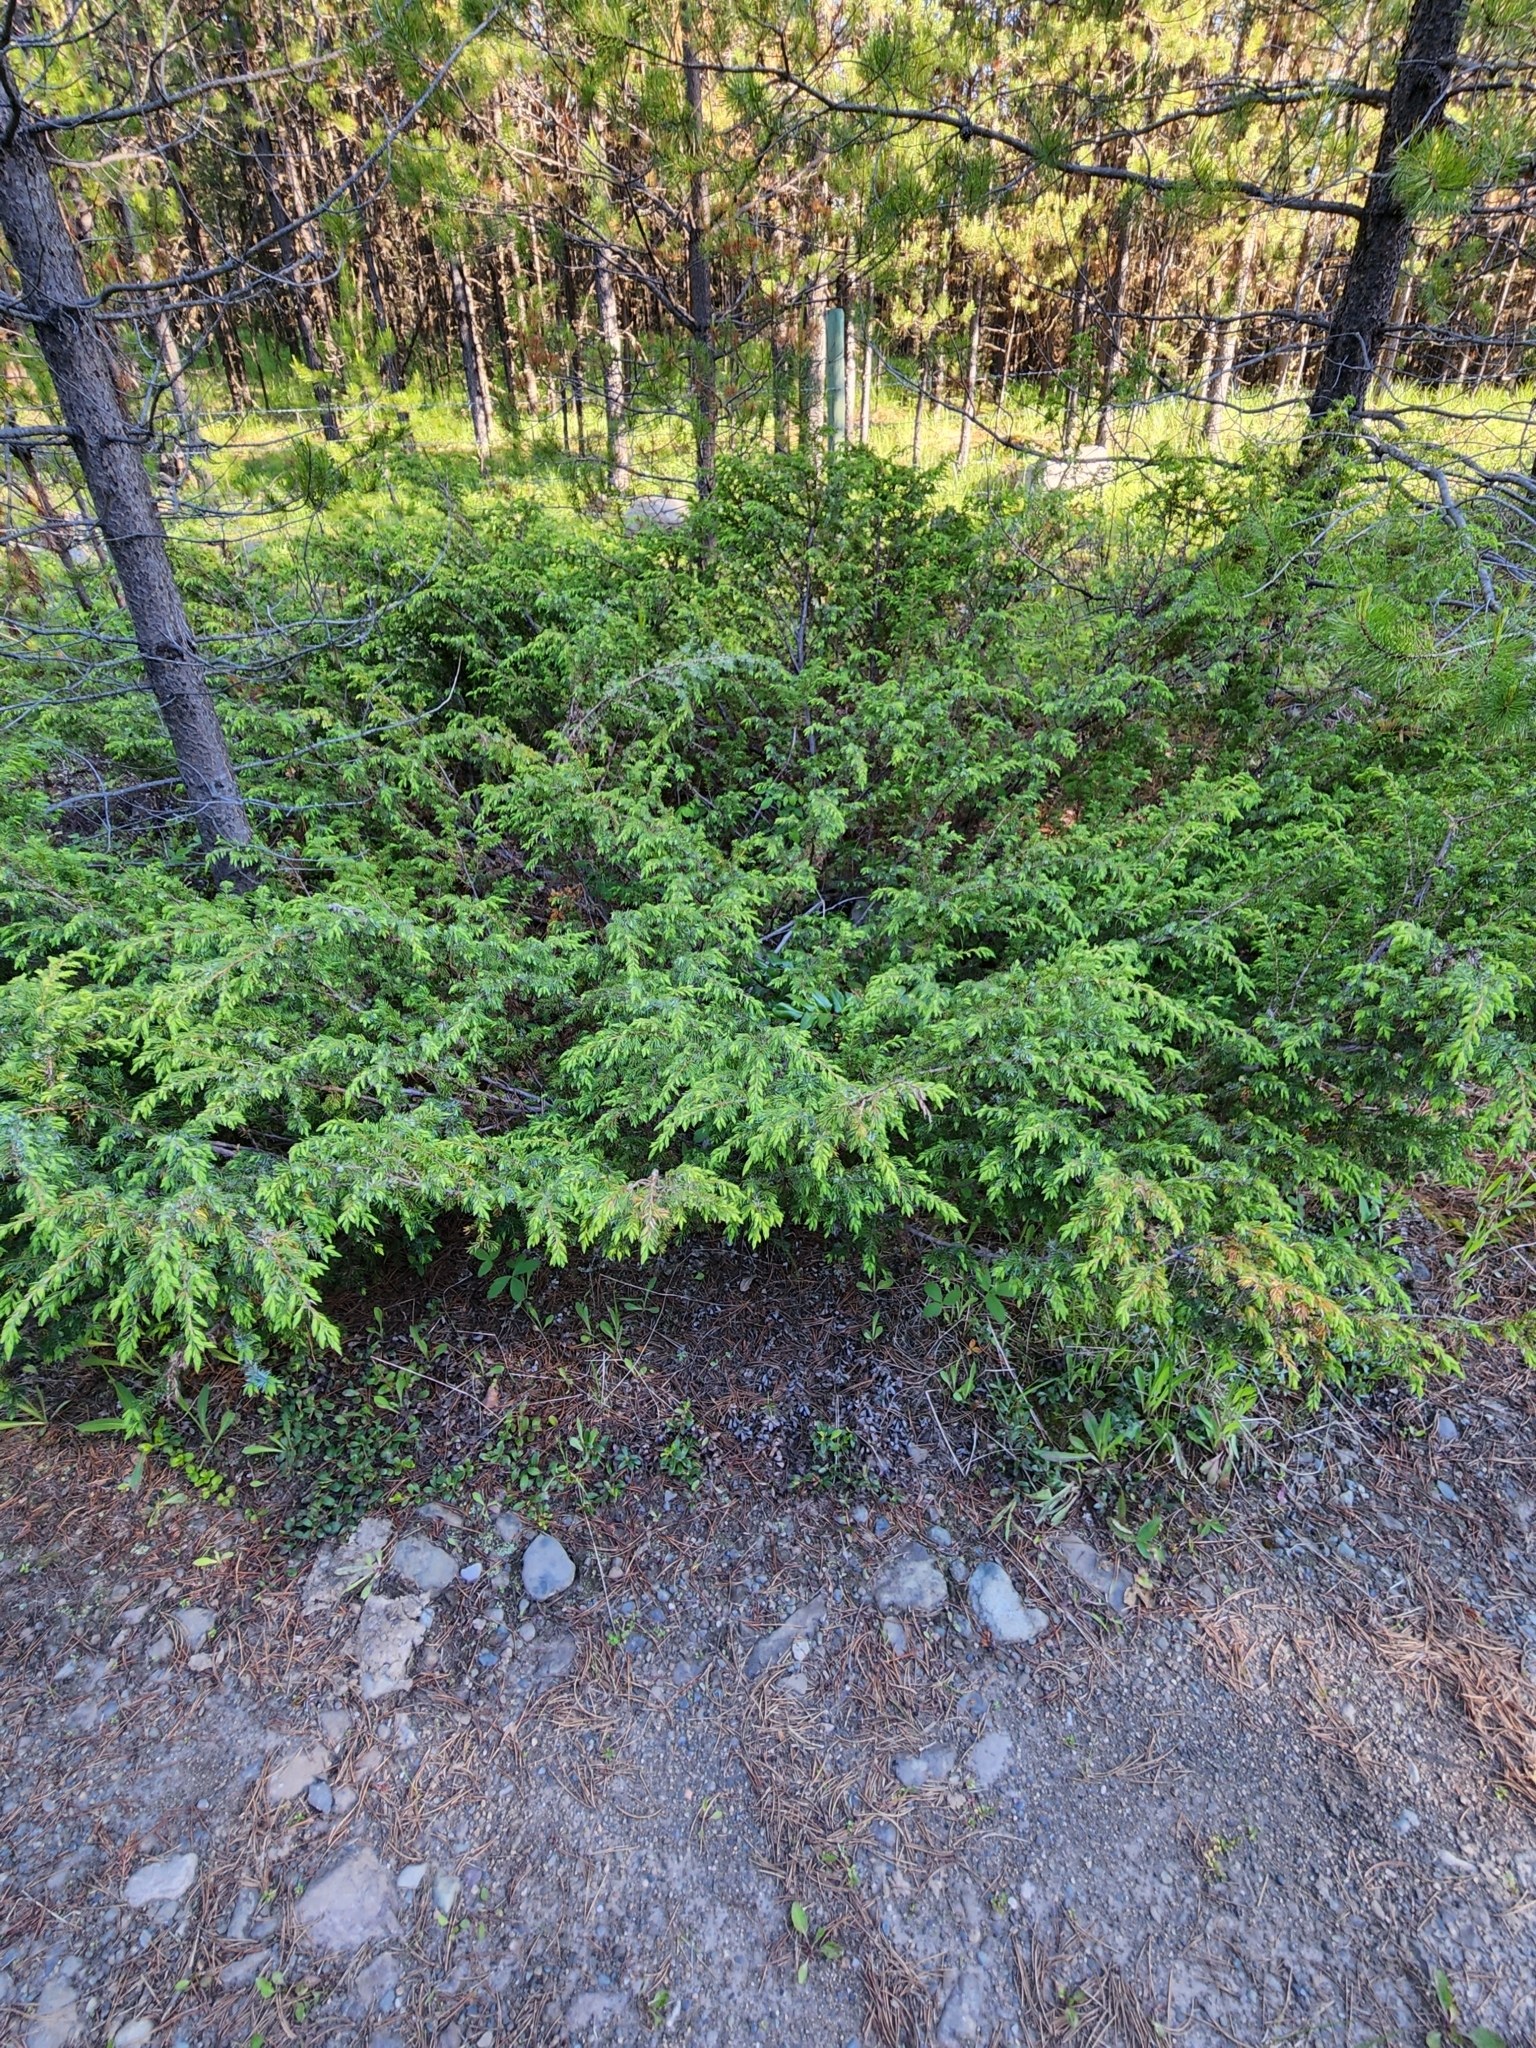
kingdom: Plantae
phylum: Tracheophyta
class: Pinopsida
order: Pinales
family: Cupressaceae
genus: Juniperus
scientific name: Juniperus communis
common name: Common juniper
